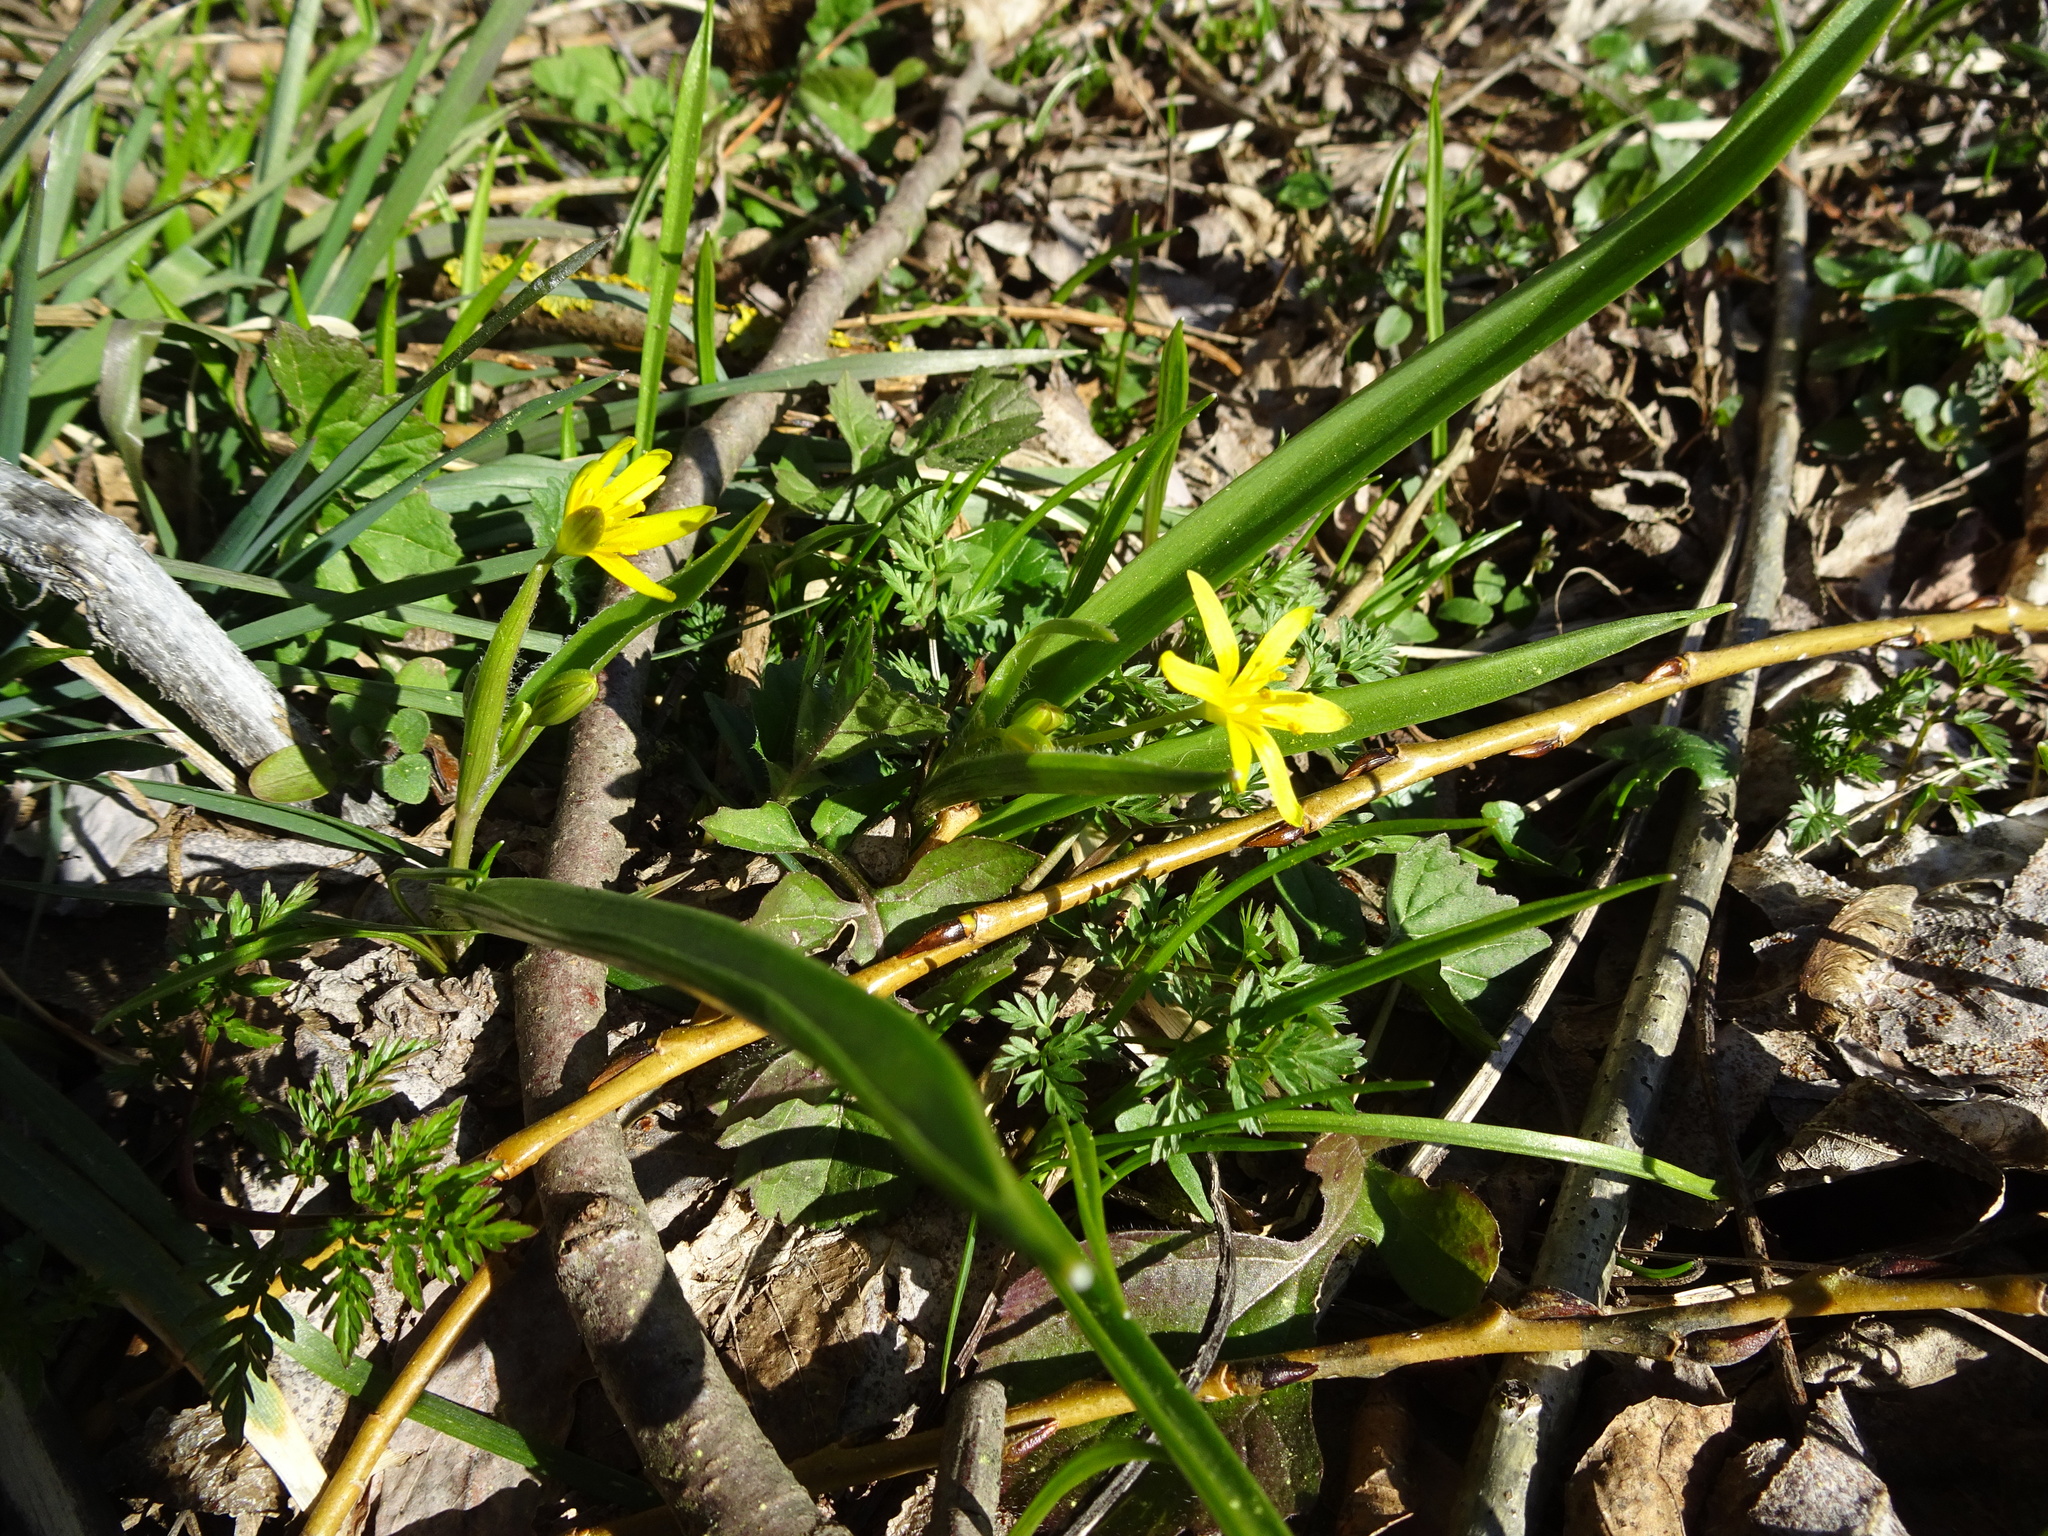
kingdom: Plantae
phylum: Tracheophyta
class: Liliopsida
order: Liliales
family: Liliaceae
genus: Gagea
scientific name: Gagea lutea
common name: Yellow star-of-bethlehem
